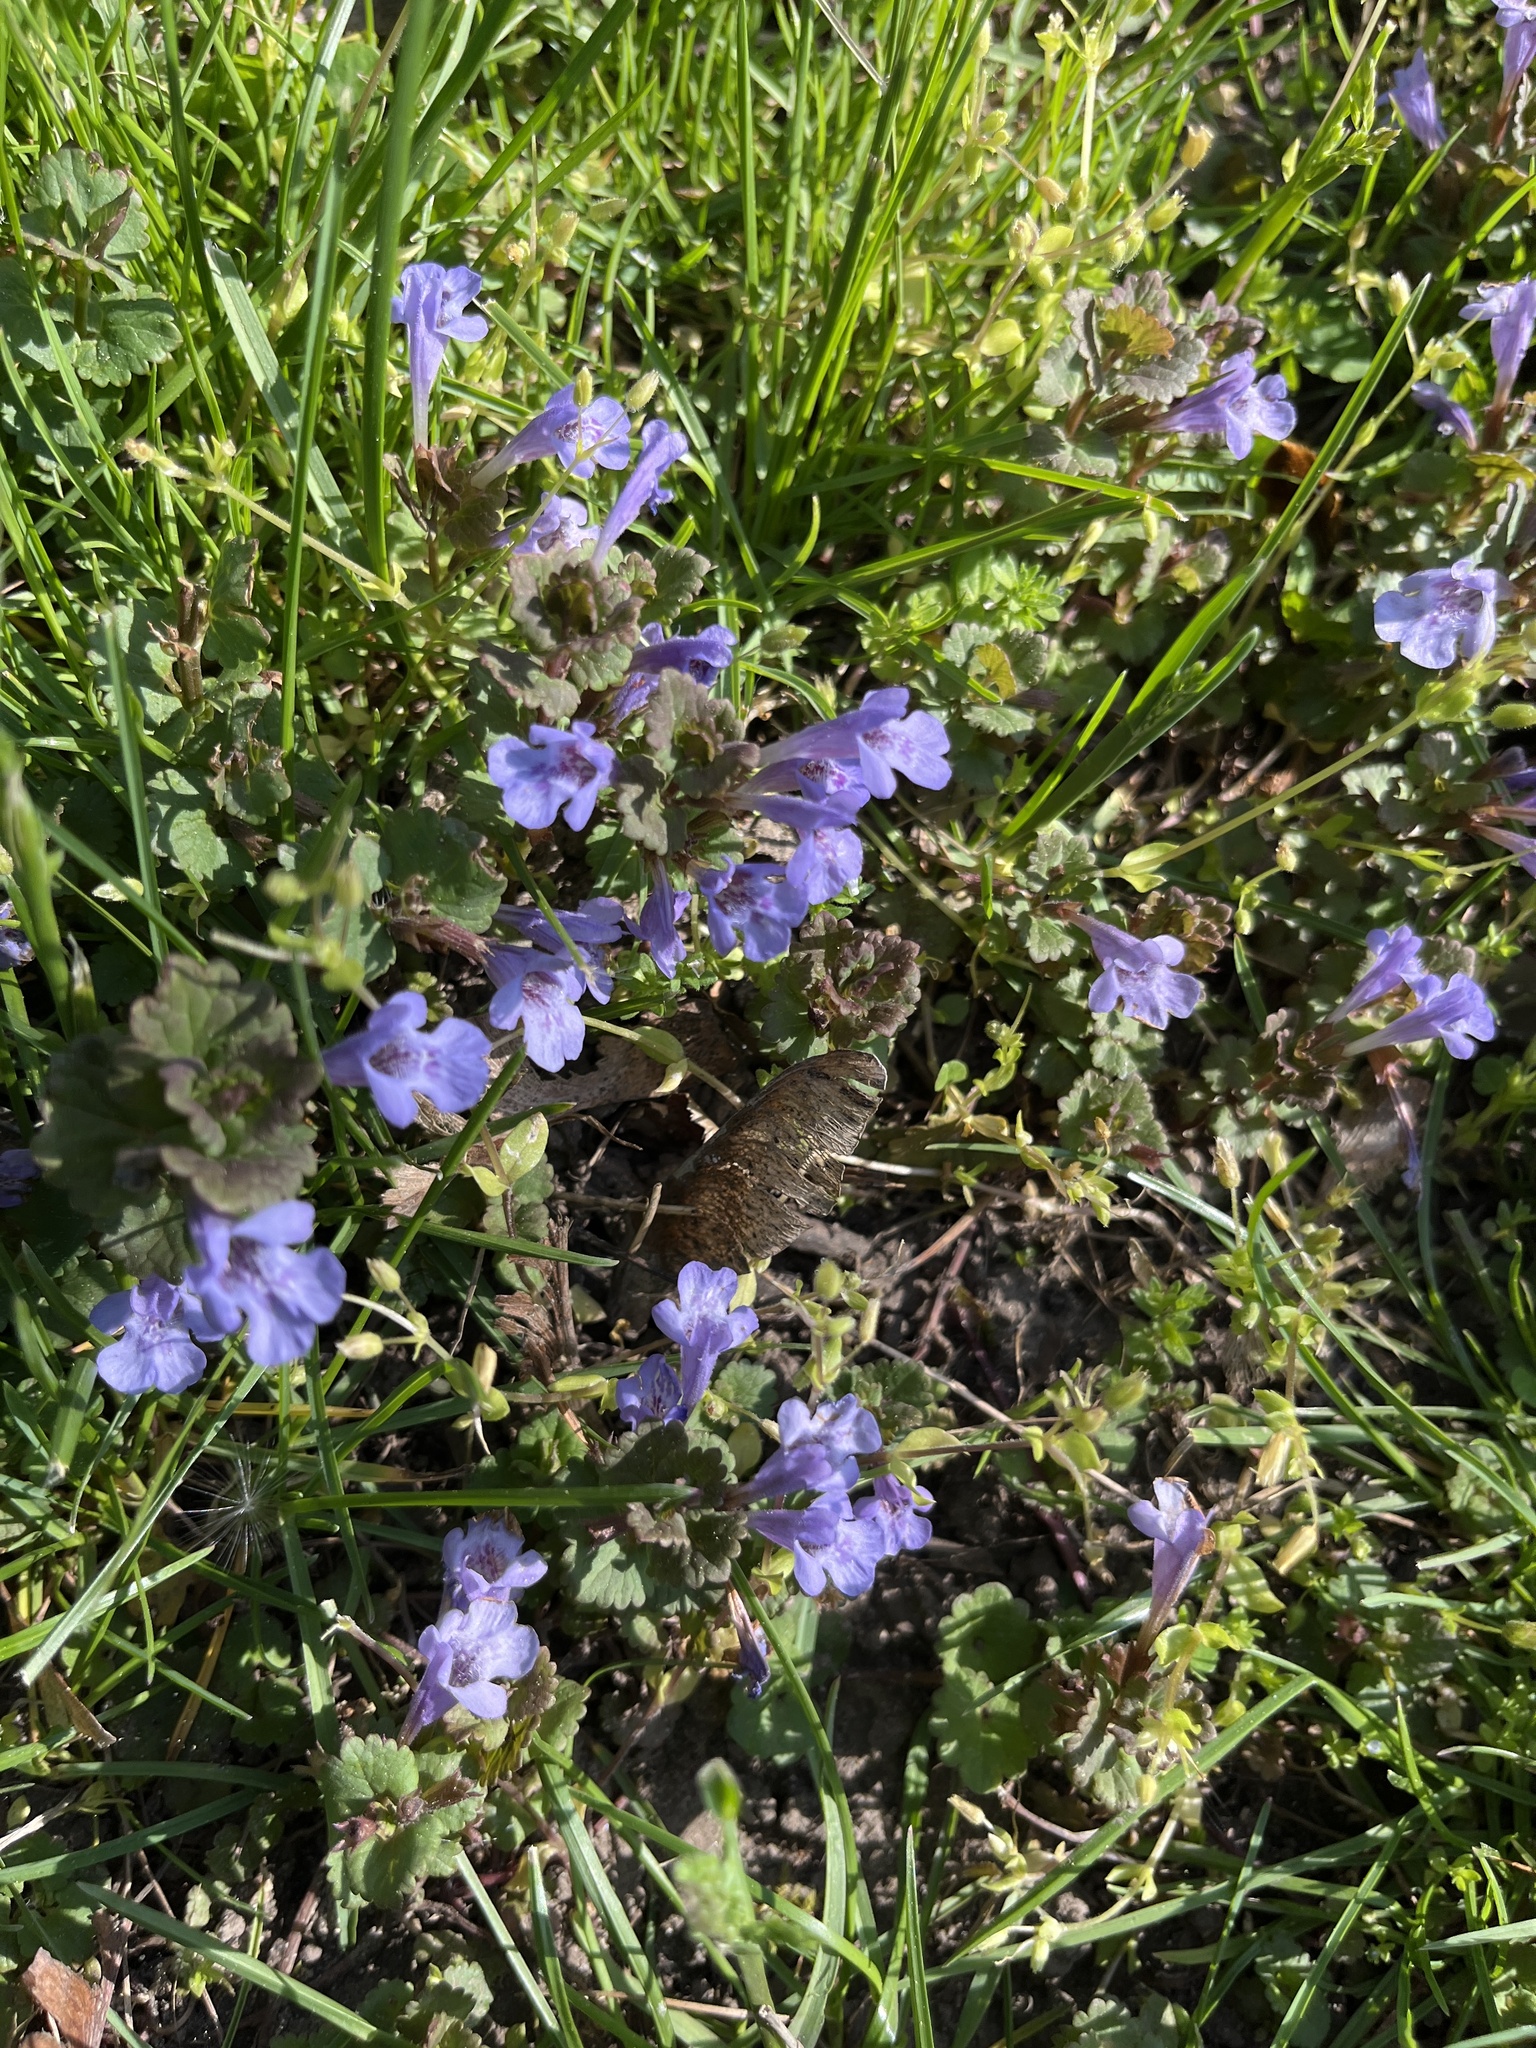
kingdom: Plantae
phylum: Tracheophyta
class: Magnoliopsida
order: Lamiales
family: Lamiaceae
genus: Glechoma
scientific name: Glechoma hederacea
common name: Ground ivy
